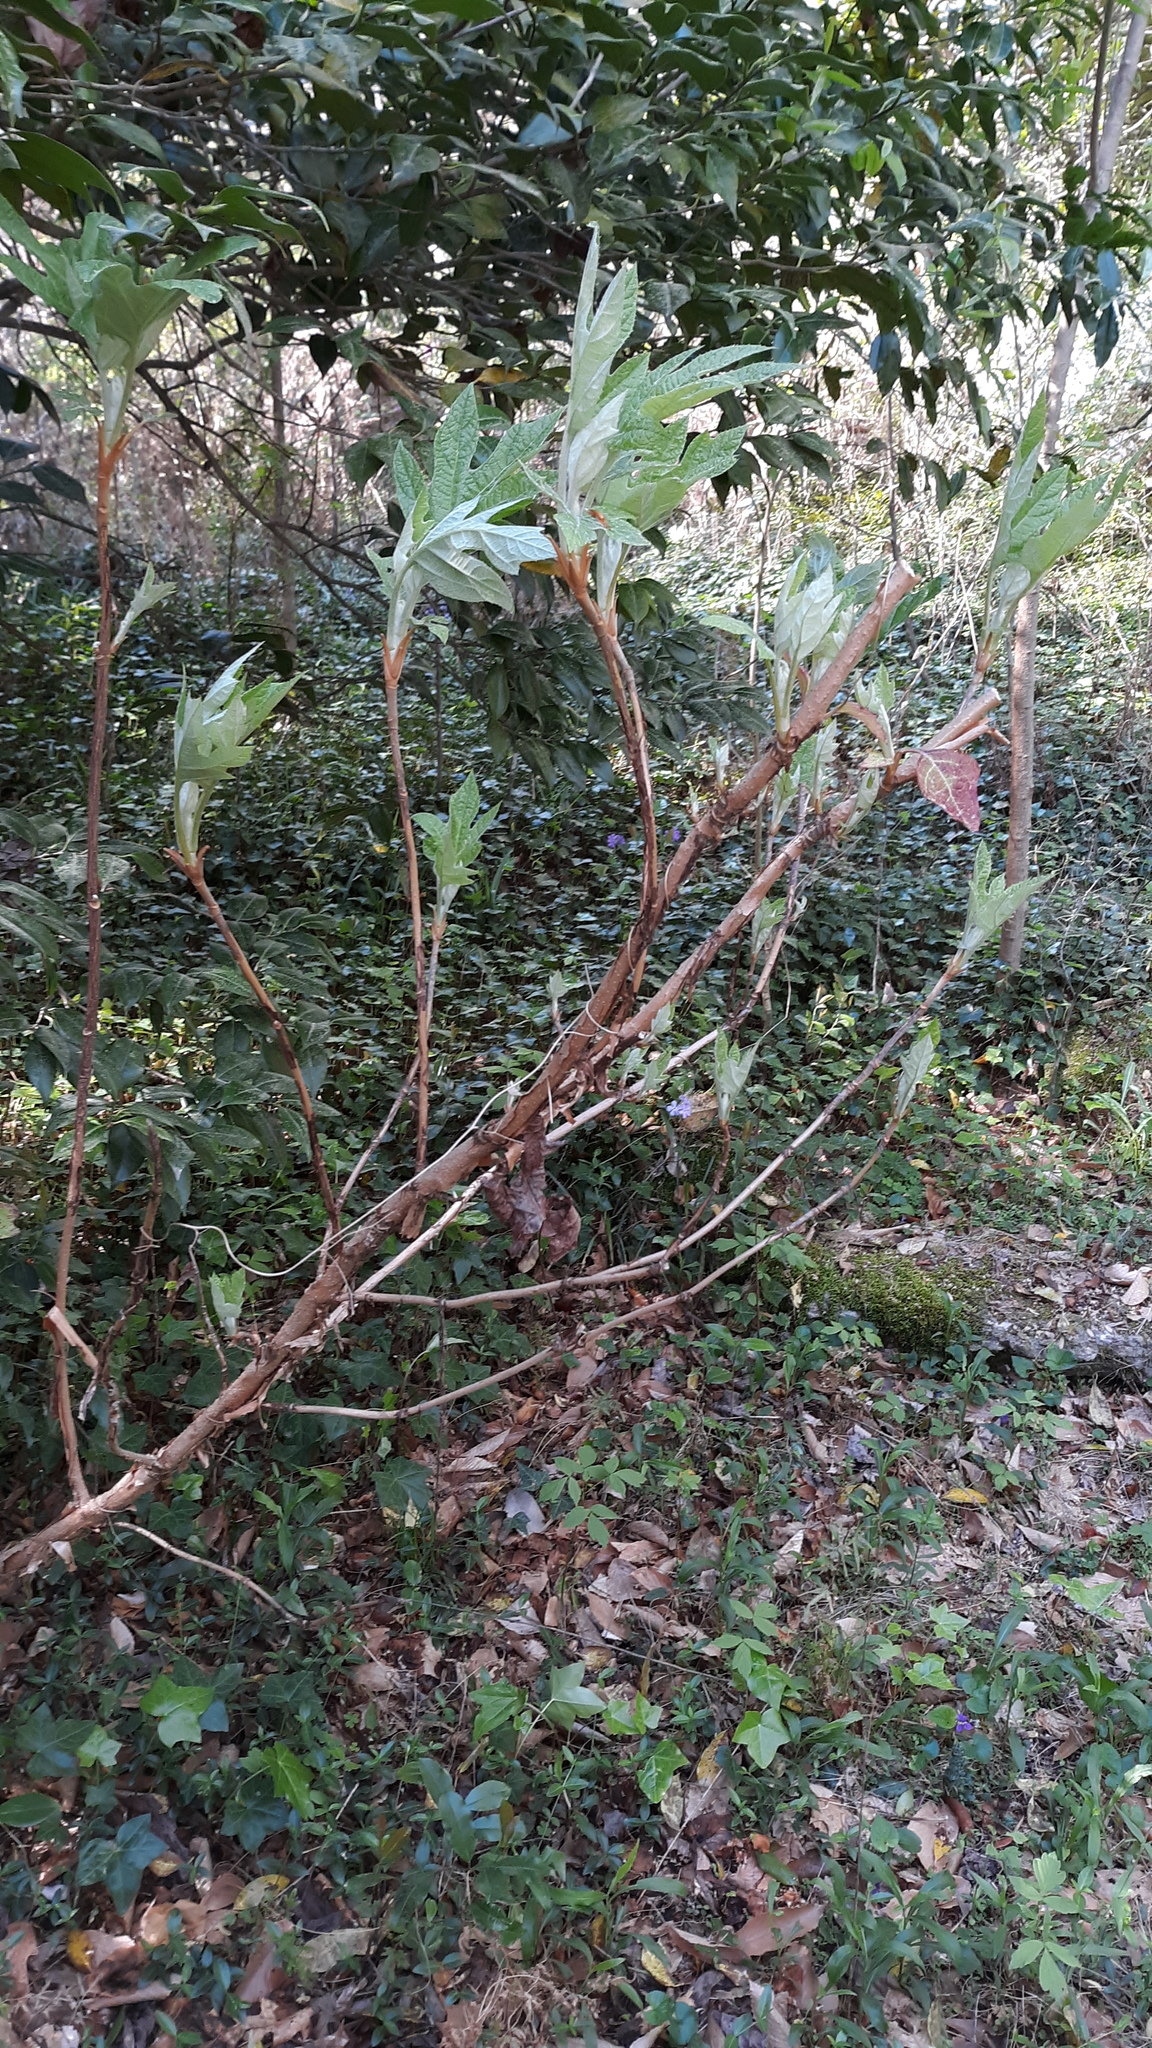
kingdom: Plantae
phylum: Tracheophyta
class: Magnoliopsida
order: Cornales
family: Hydrangeaceae
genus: Hydrangea
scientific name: Hydrangea quercifolia
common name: Oak-leaf hydrangea
